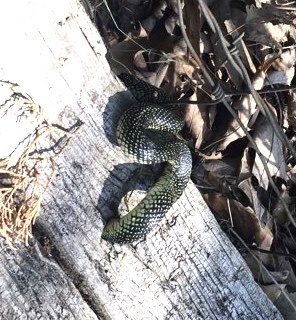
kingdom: Animalia
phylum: Chordata
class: Squamata
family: Colubridae
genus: Lampropeltis
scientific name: Lampropeltis holbrooki
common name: Speckled kingsnake
